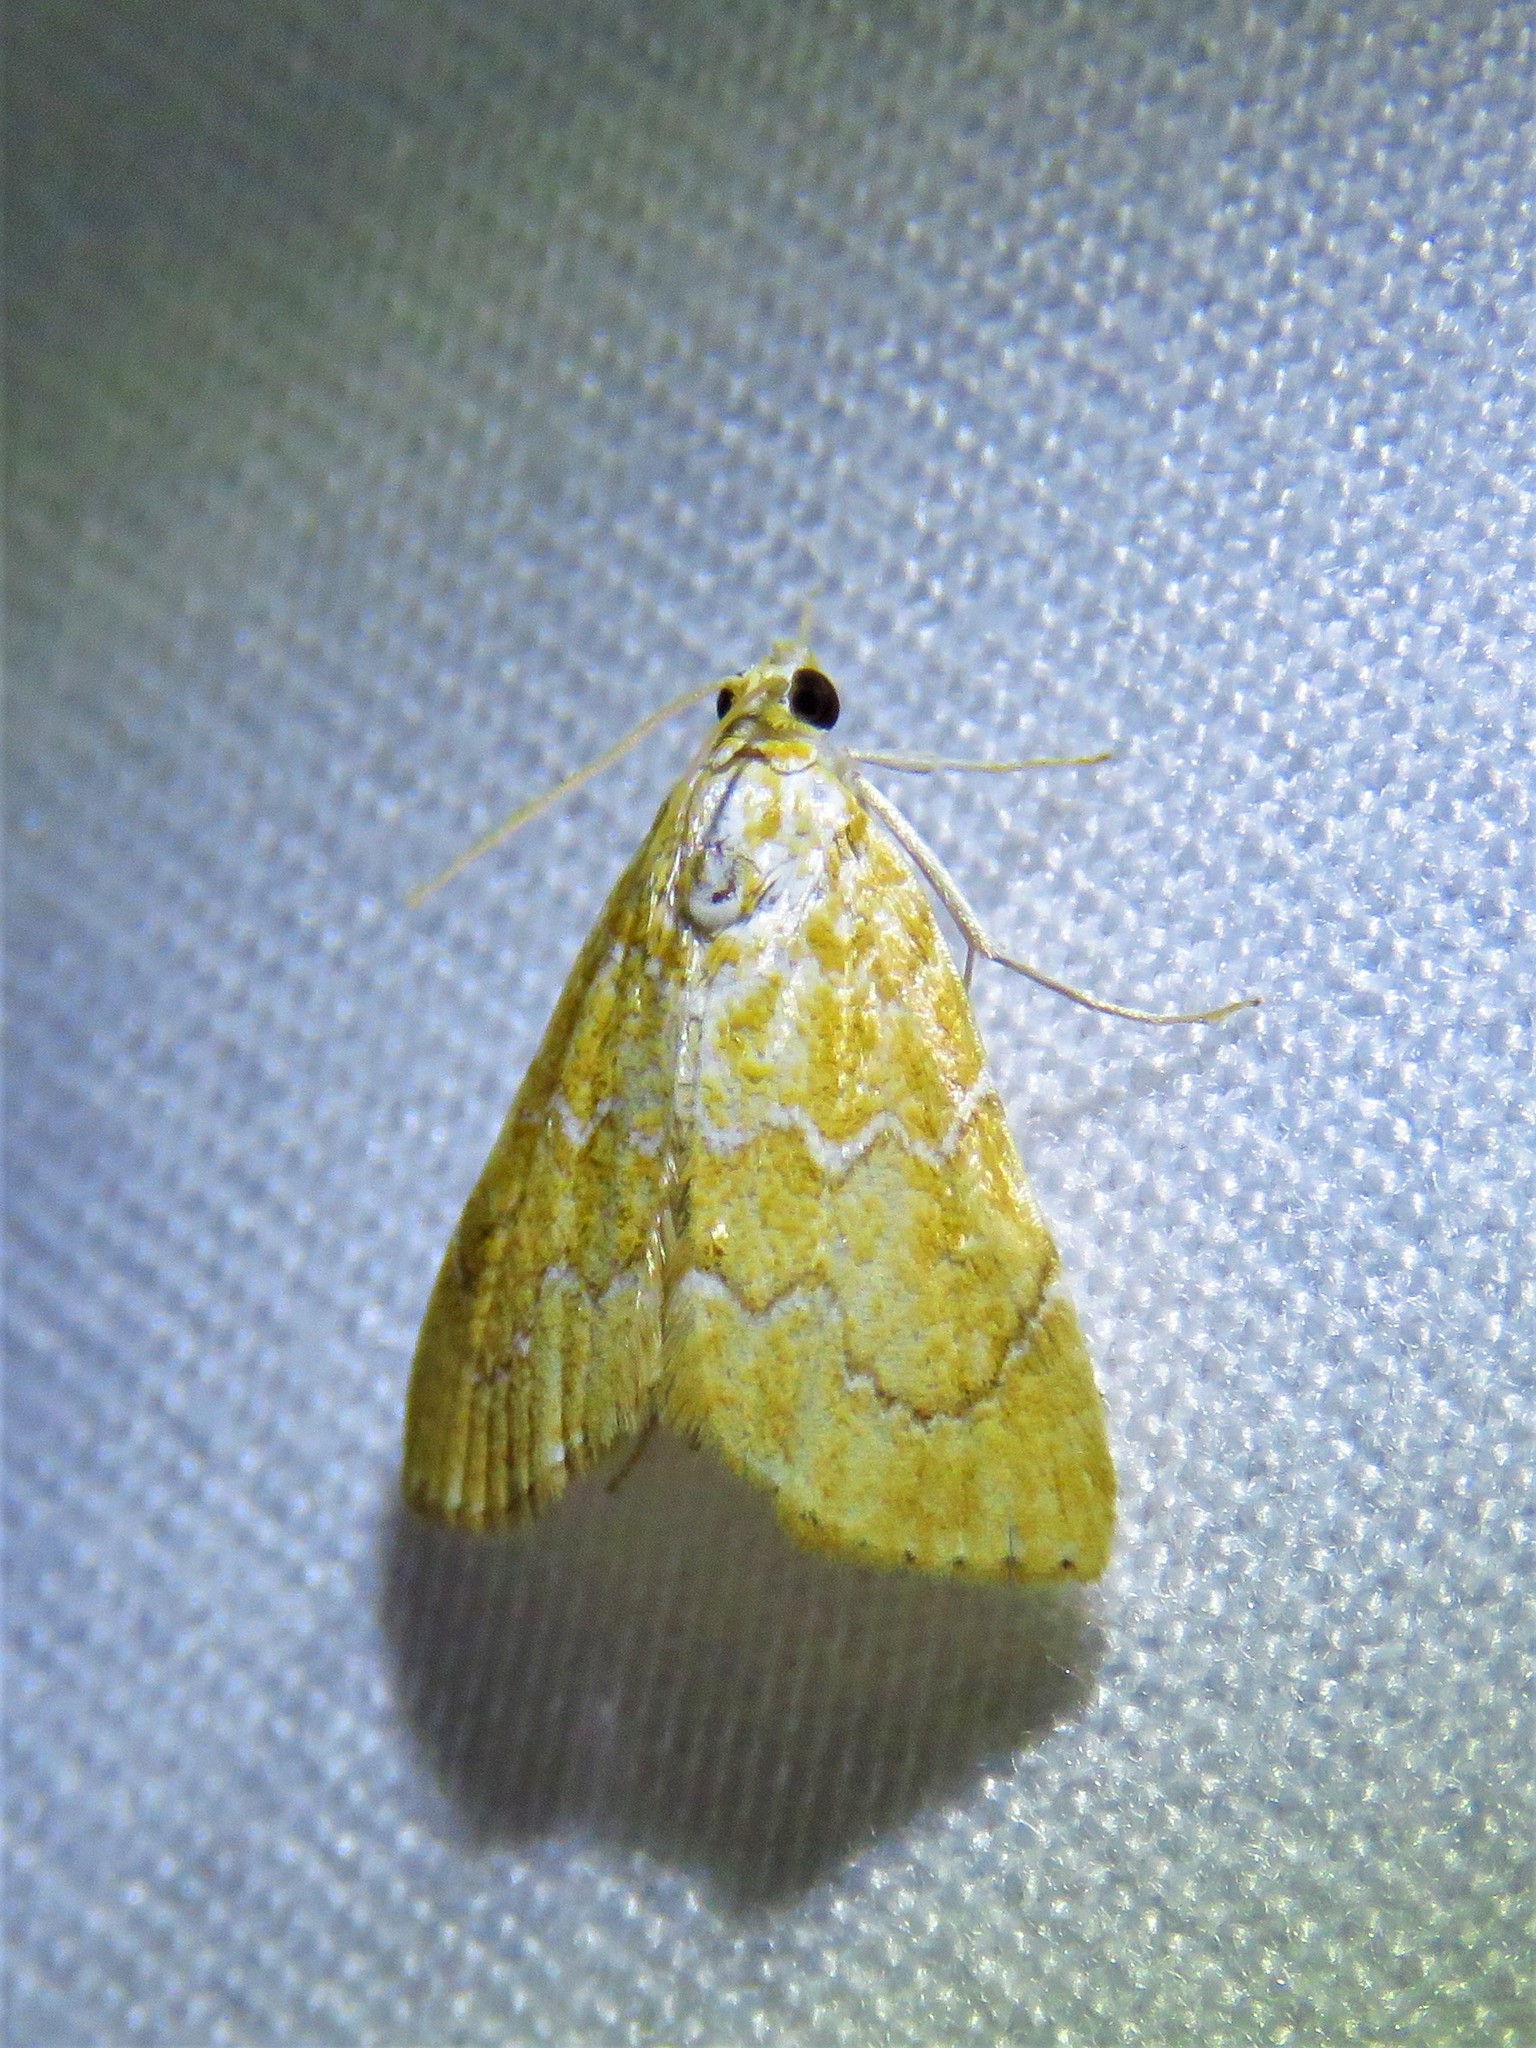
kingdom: Animalia
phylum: Arthropoda
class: Insecta
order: Lepidoptera
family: Crambidae
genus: Glaphyria
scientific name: Glaphyria sesquistrialis
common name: White-roped glaphyria
